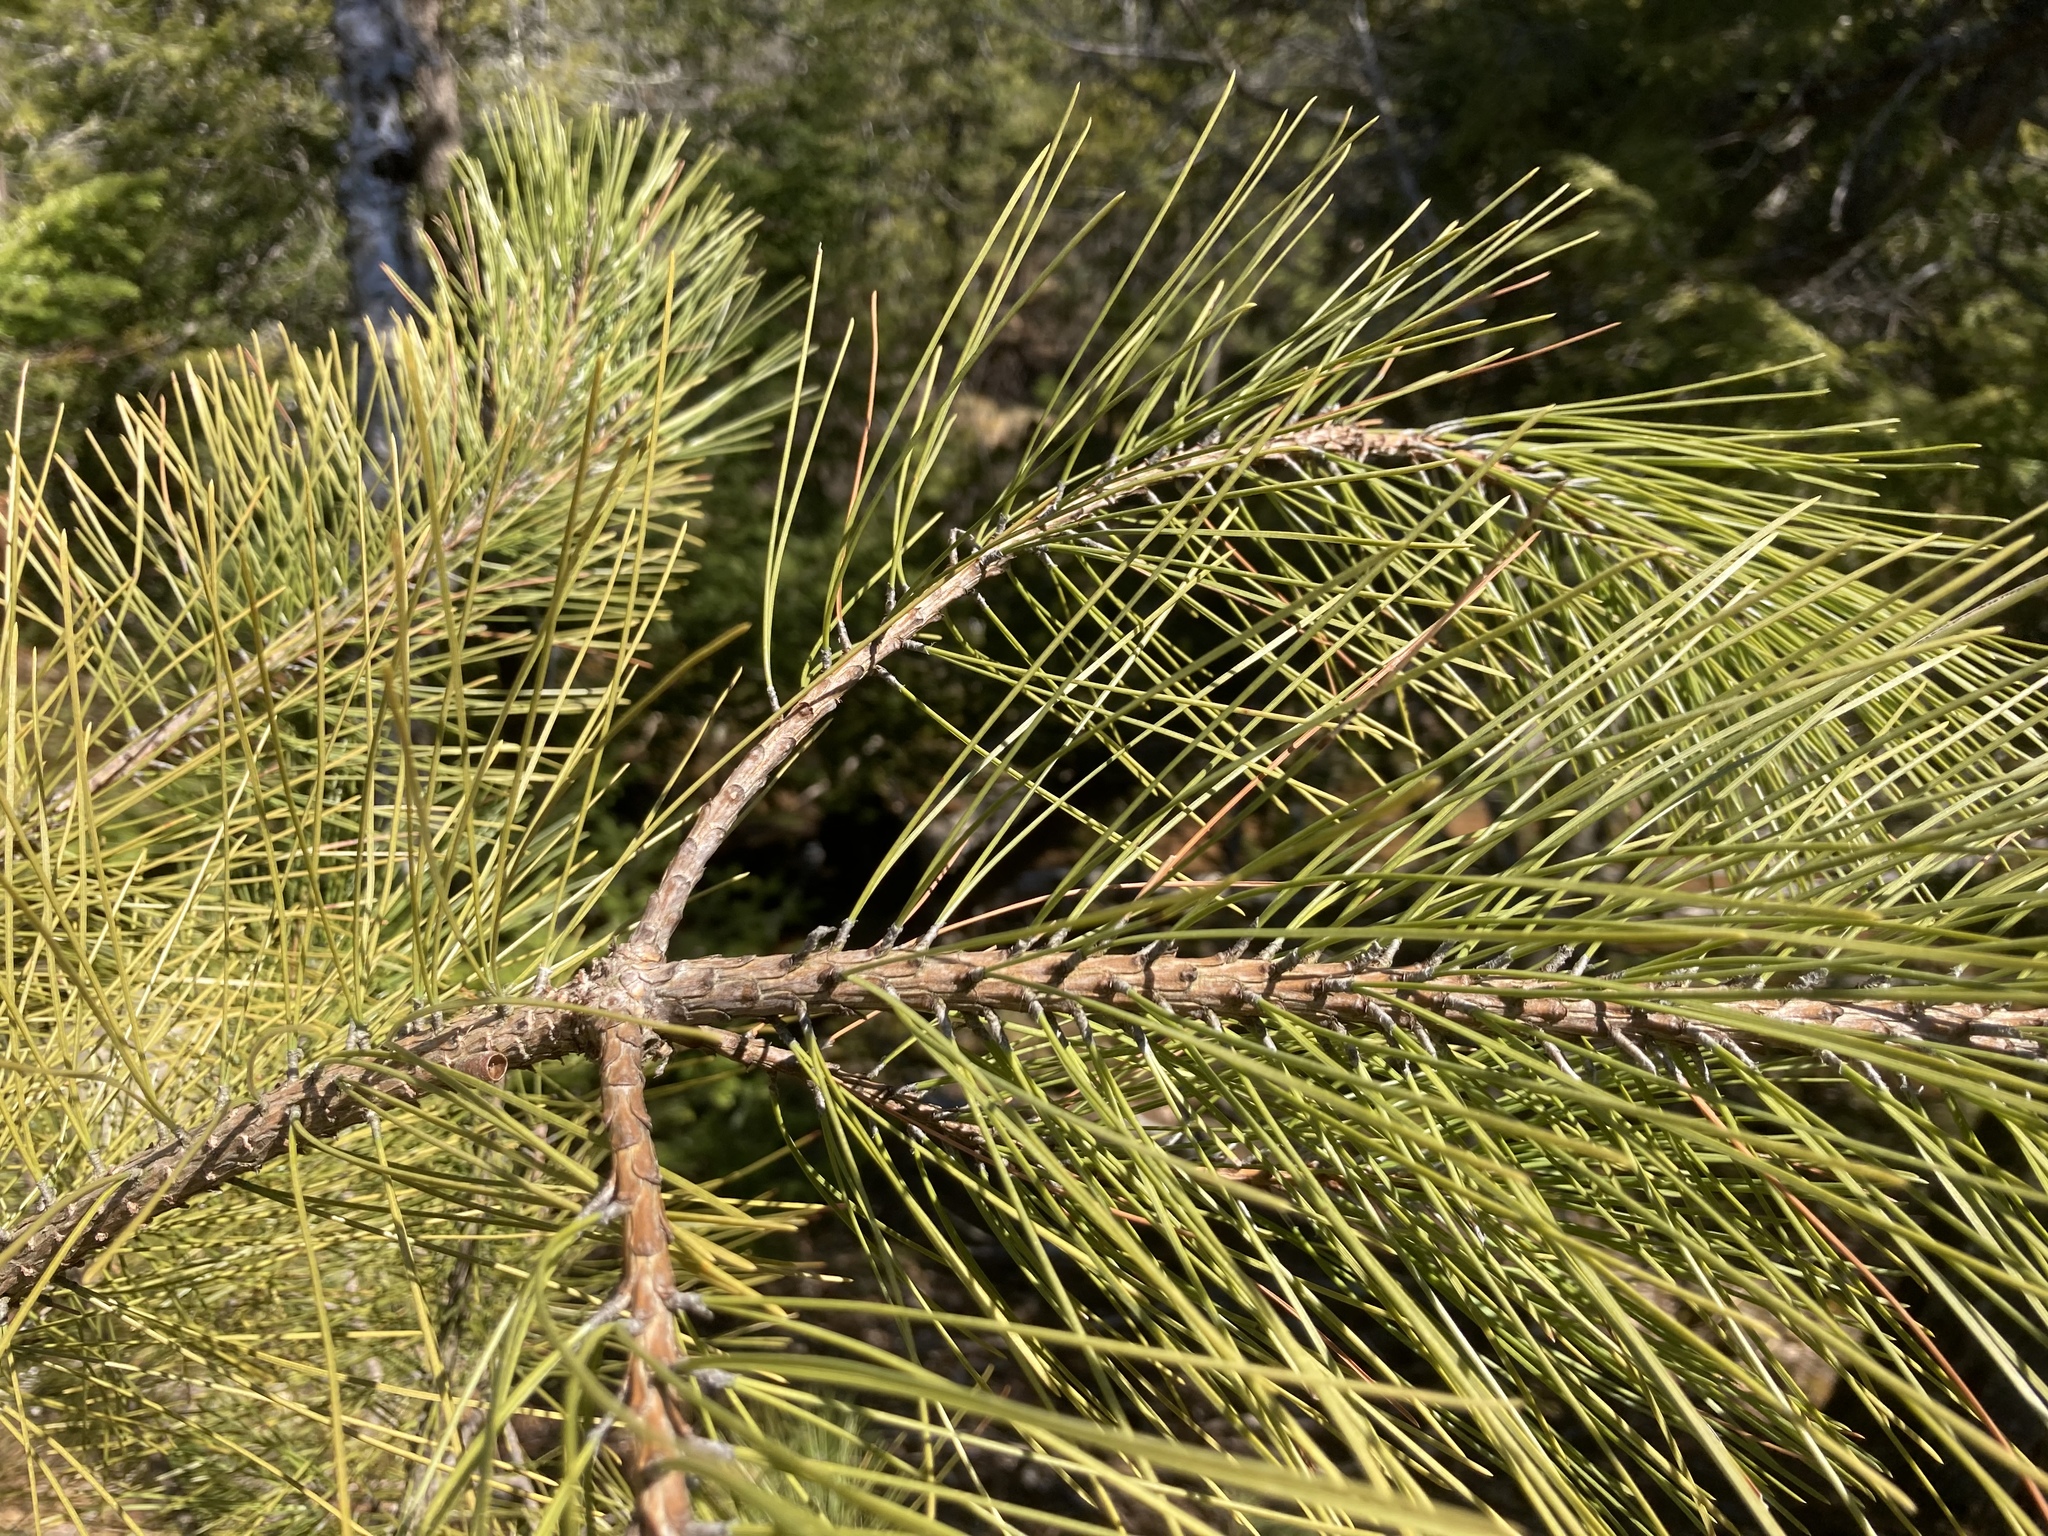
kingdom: Plantae
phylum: Tracheophyta
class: Pinopsida
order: Pinales
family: Pinaceae
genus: Pinus
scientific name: Pinus resinosa
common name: Norway pine
